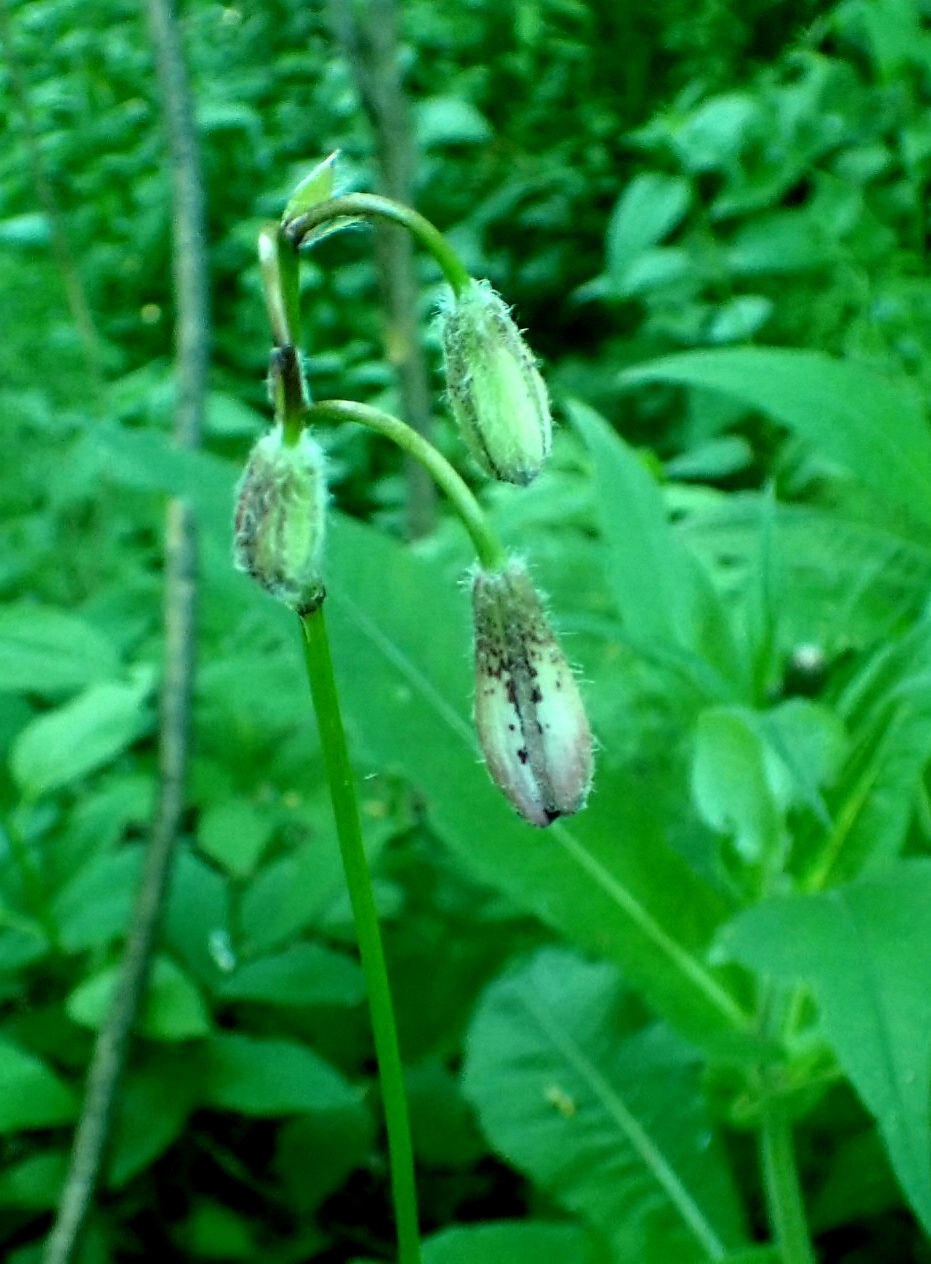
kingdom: Plantae
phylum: Tracheophyta
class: Liliopsida
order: Liliales
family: Liliaceae
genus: Lilium
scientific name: Lilium martagon
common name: Martagon lily
